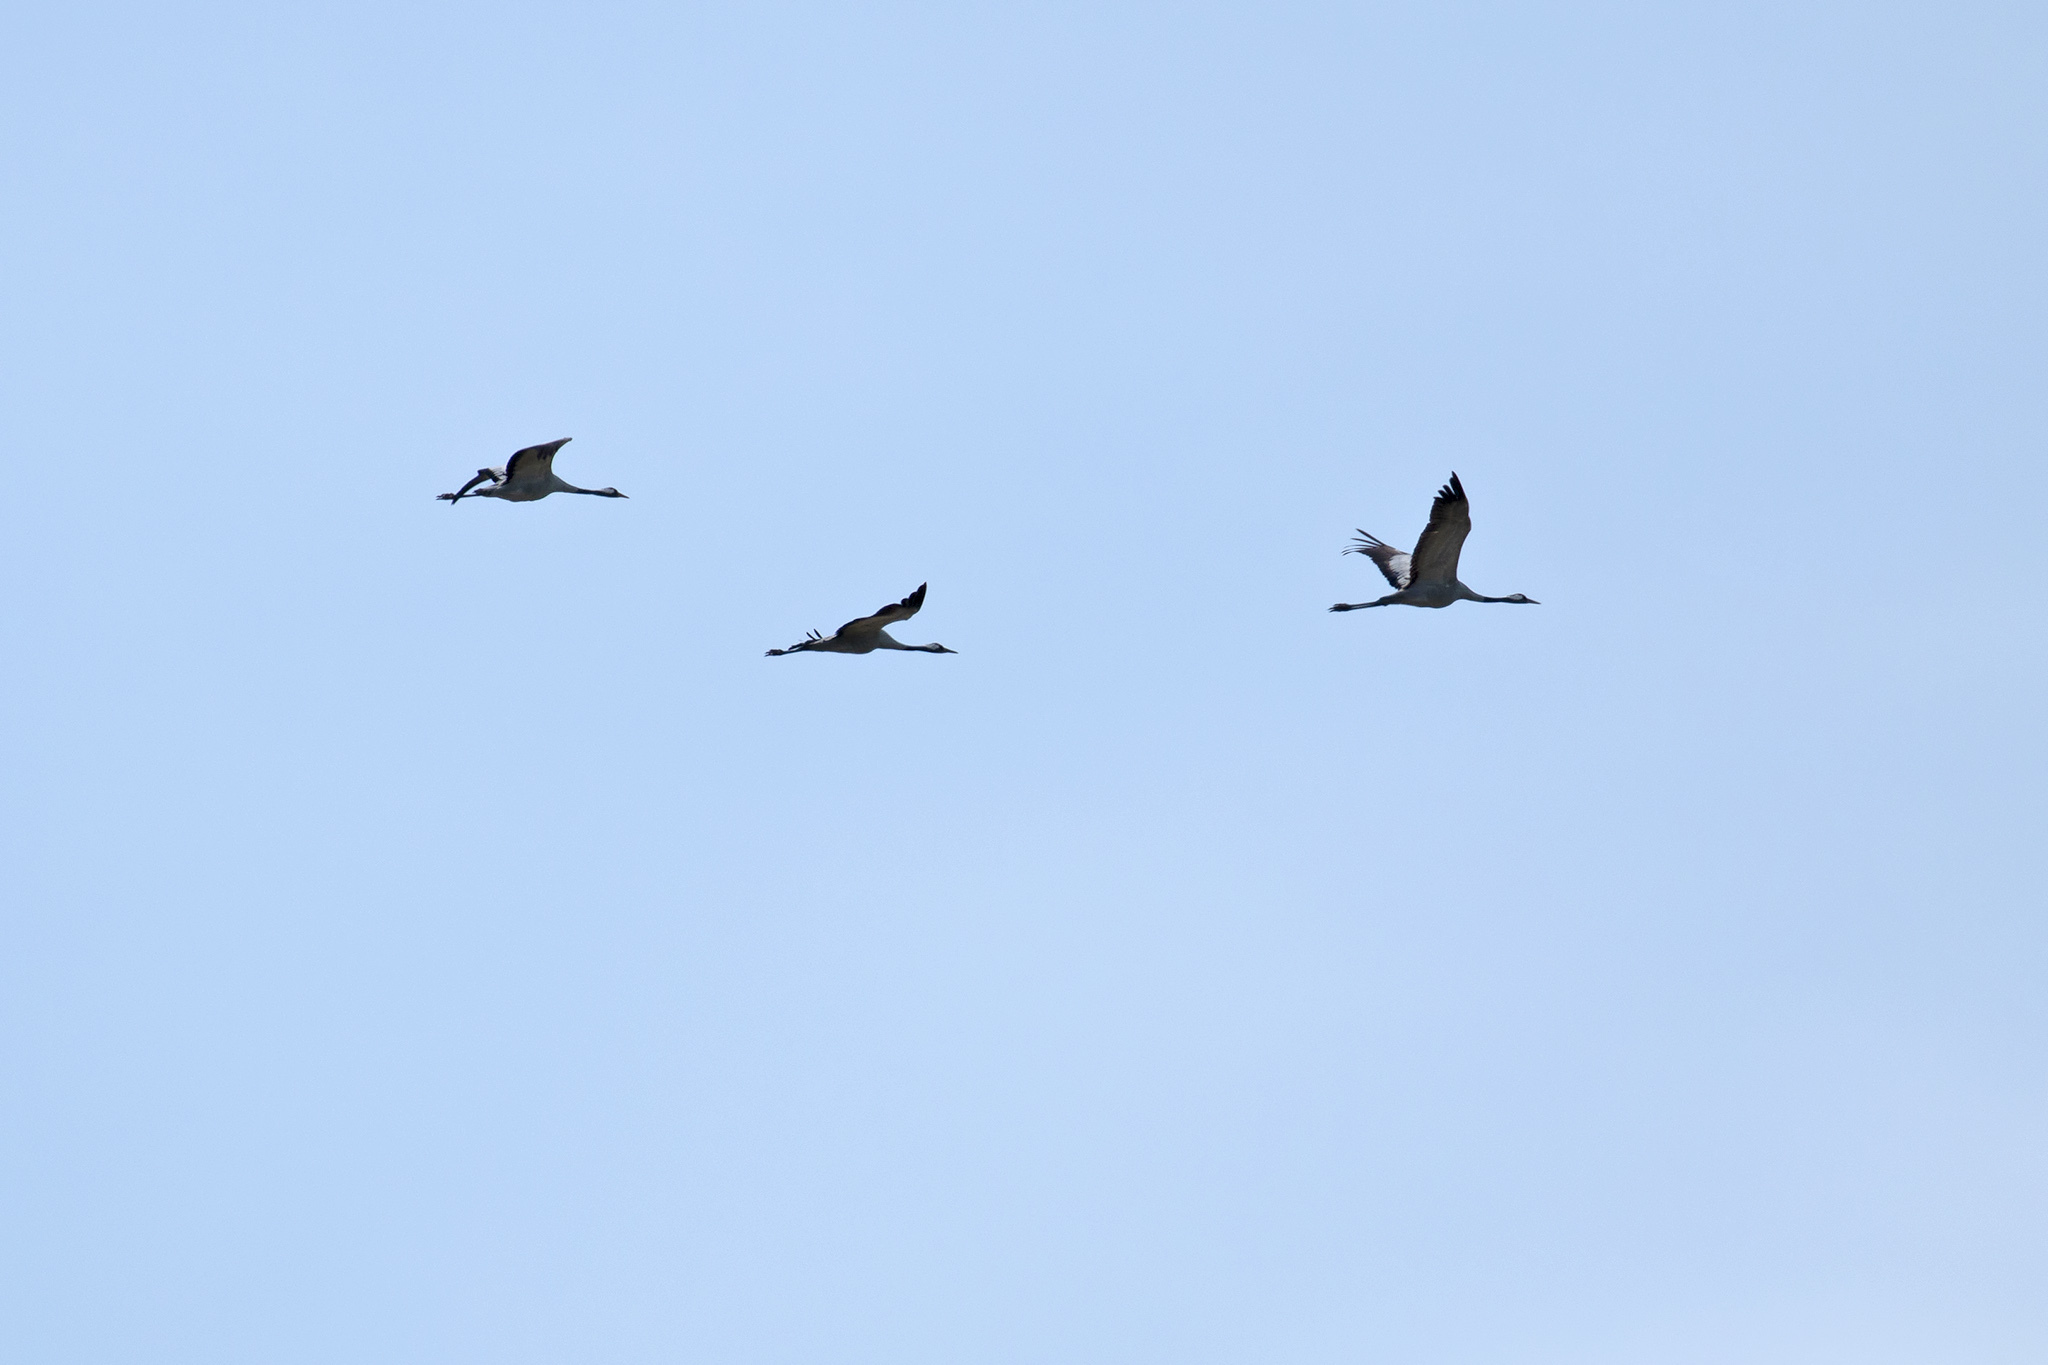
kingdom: Animalia
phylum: Chordata
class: Aves
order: Gruiformes
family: Gruidae
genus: Grus
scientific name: Grus grus
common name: Common crane
